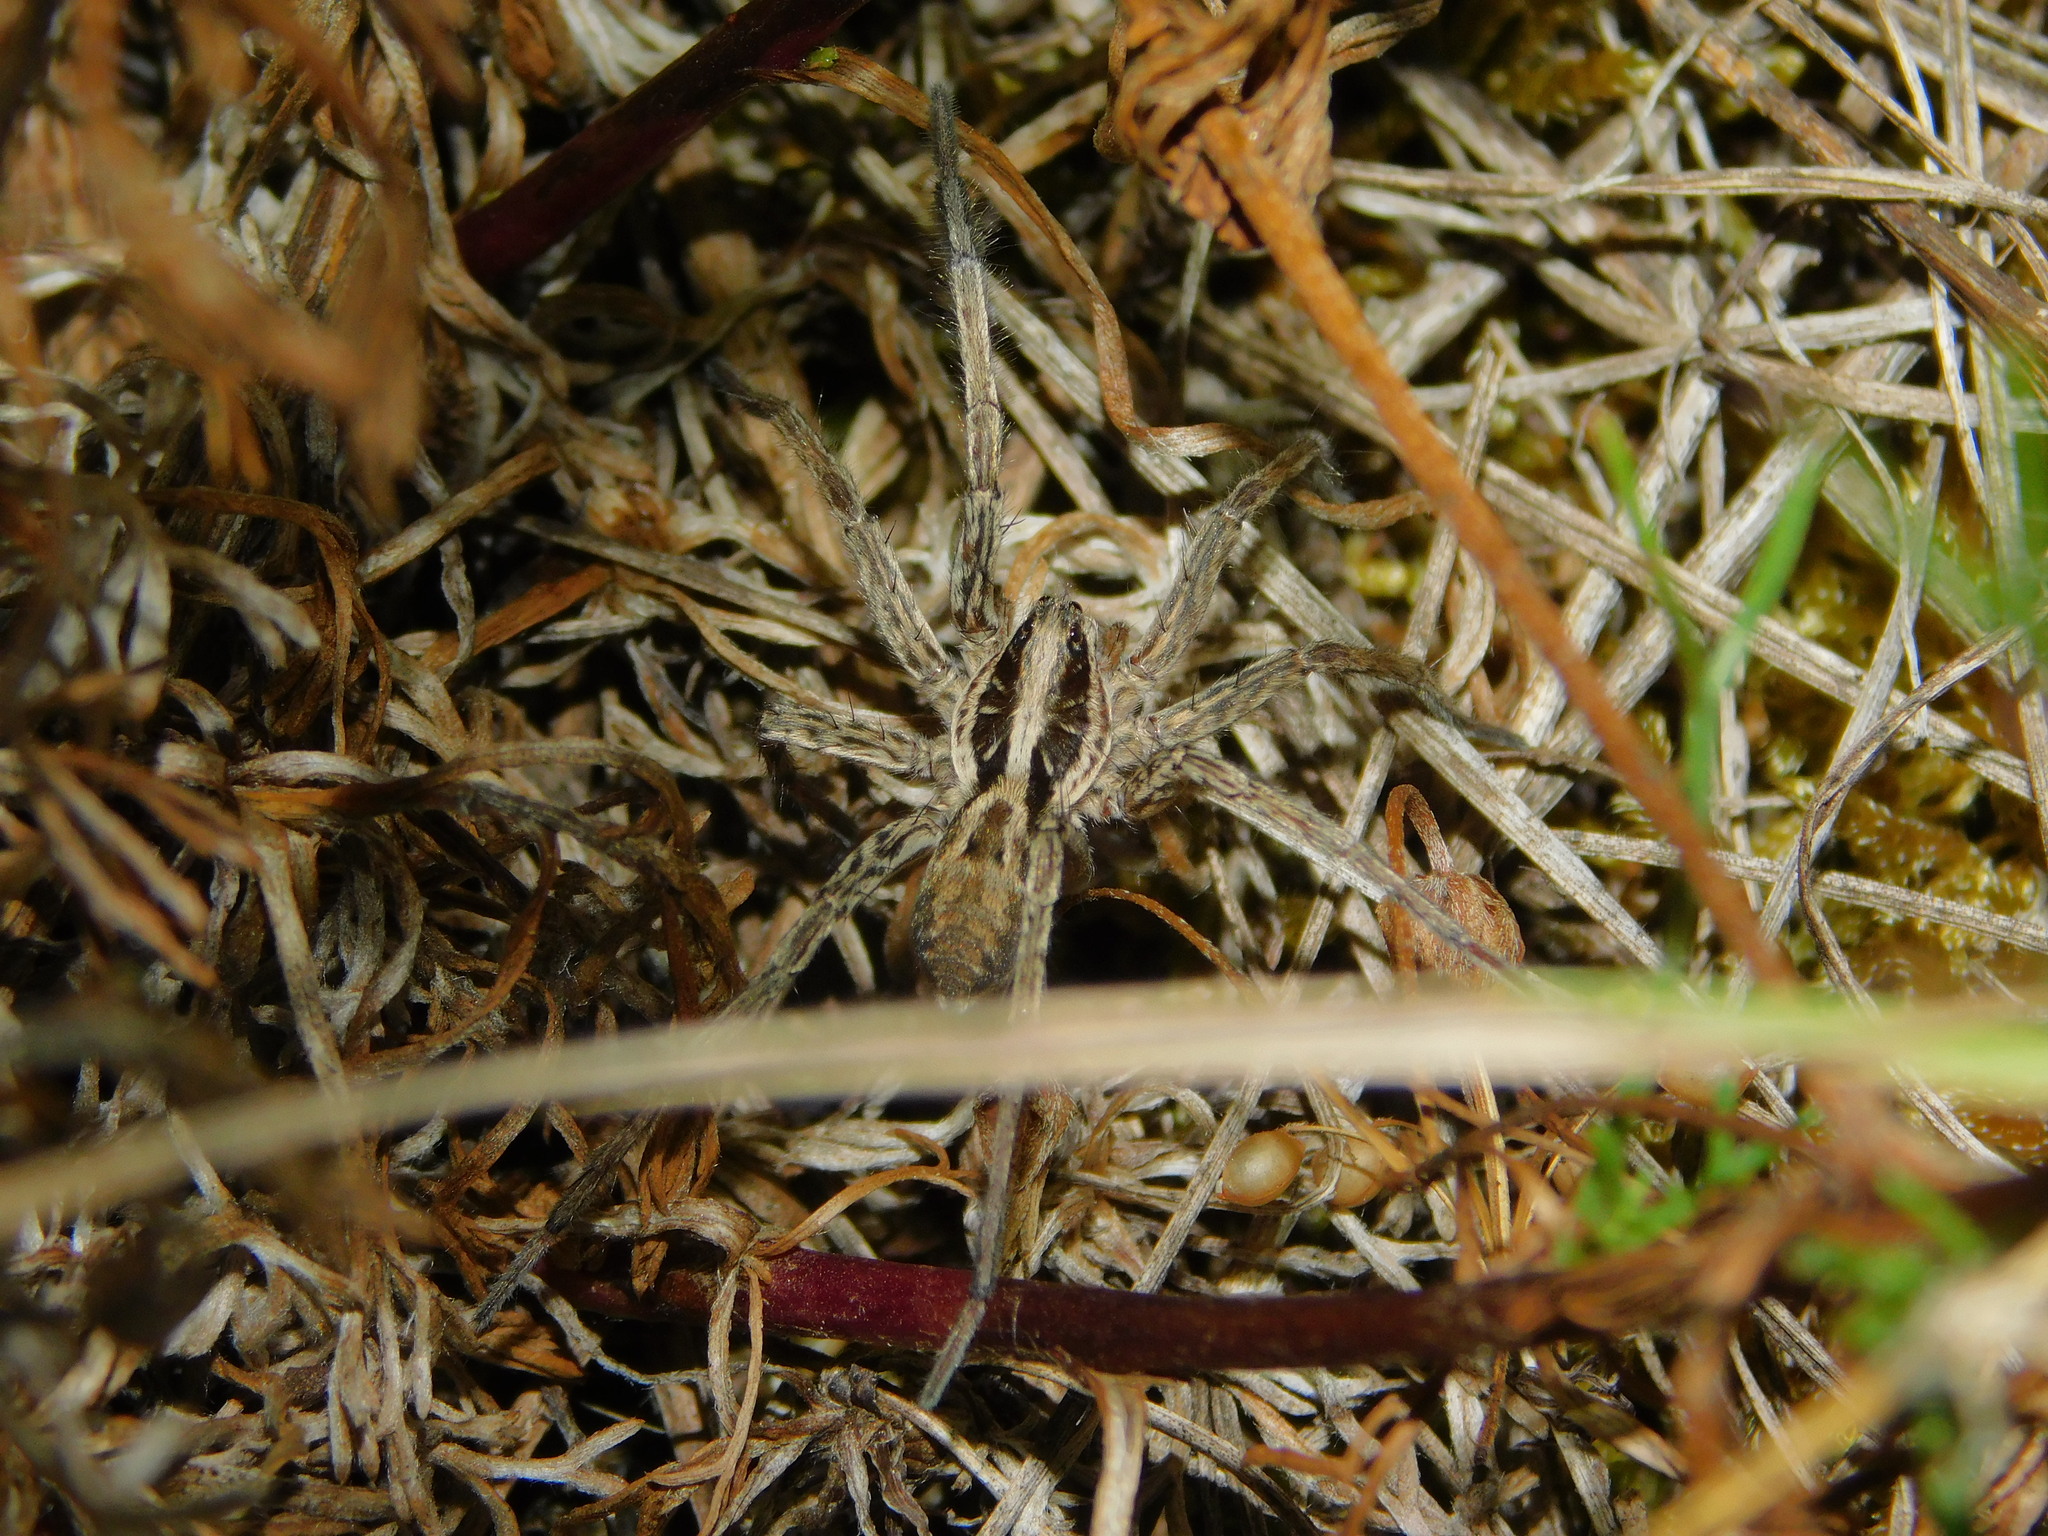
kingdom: Animalia
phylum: Arthropoda
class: Arachnida
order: Araneae
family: Lycosidae
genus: Hogna
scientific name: Hogna radiata
